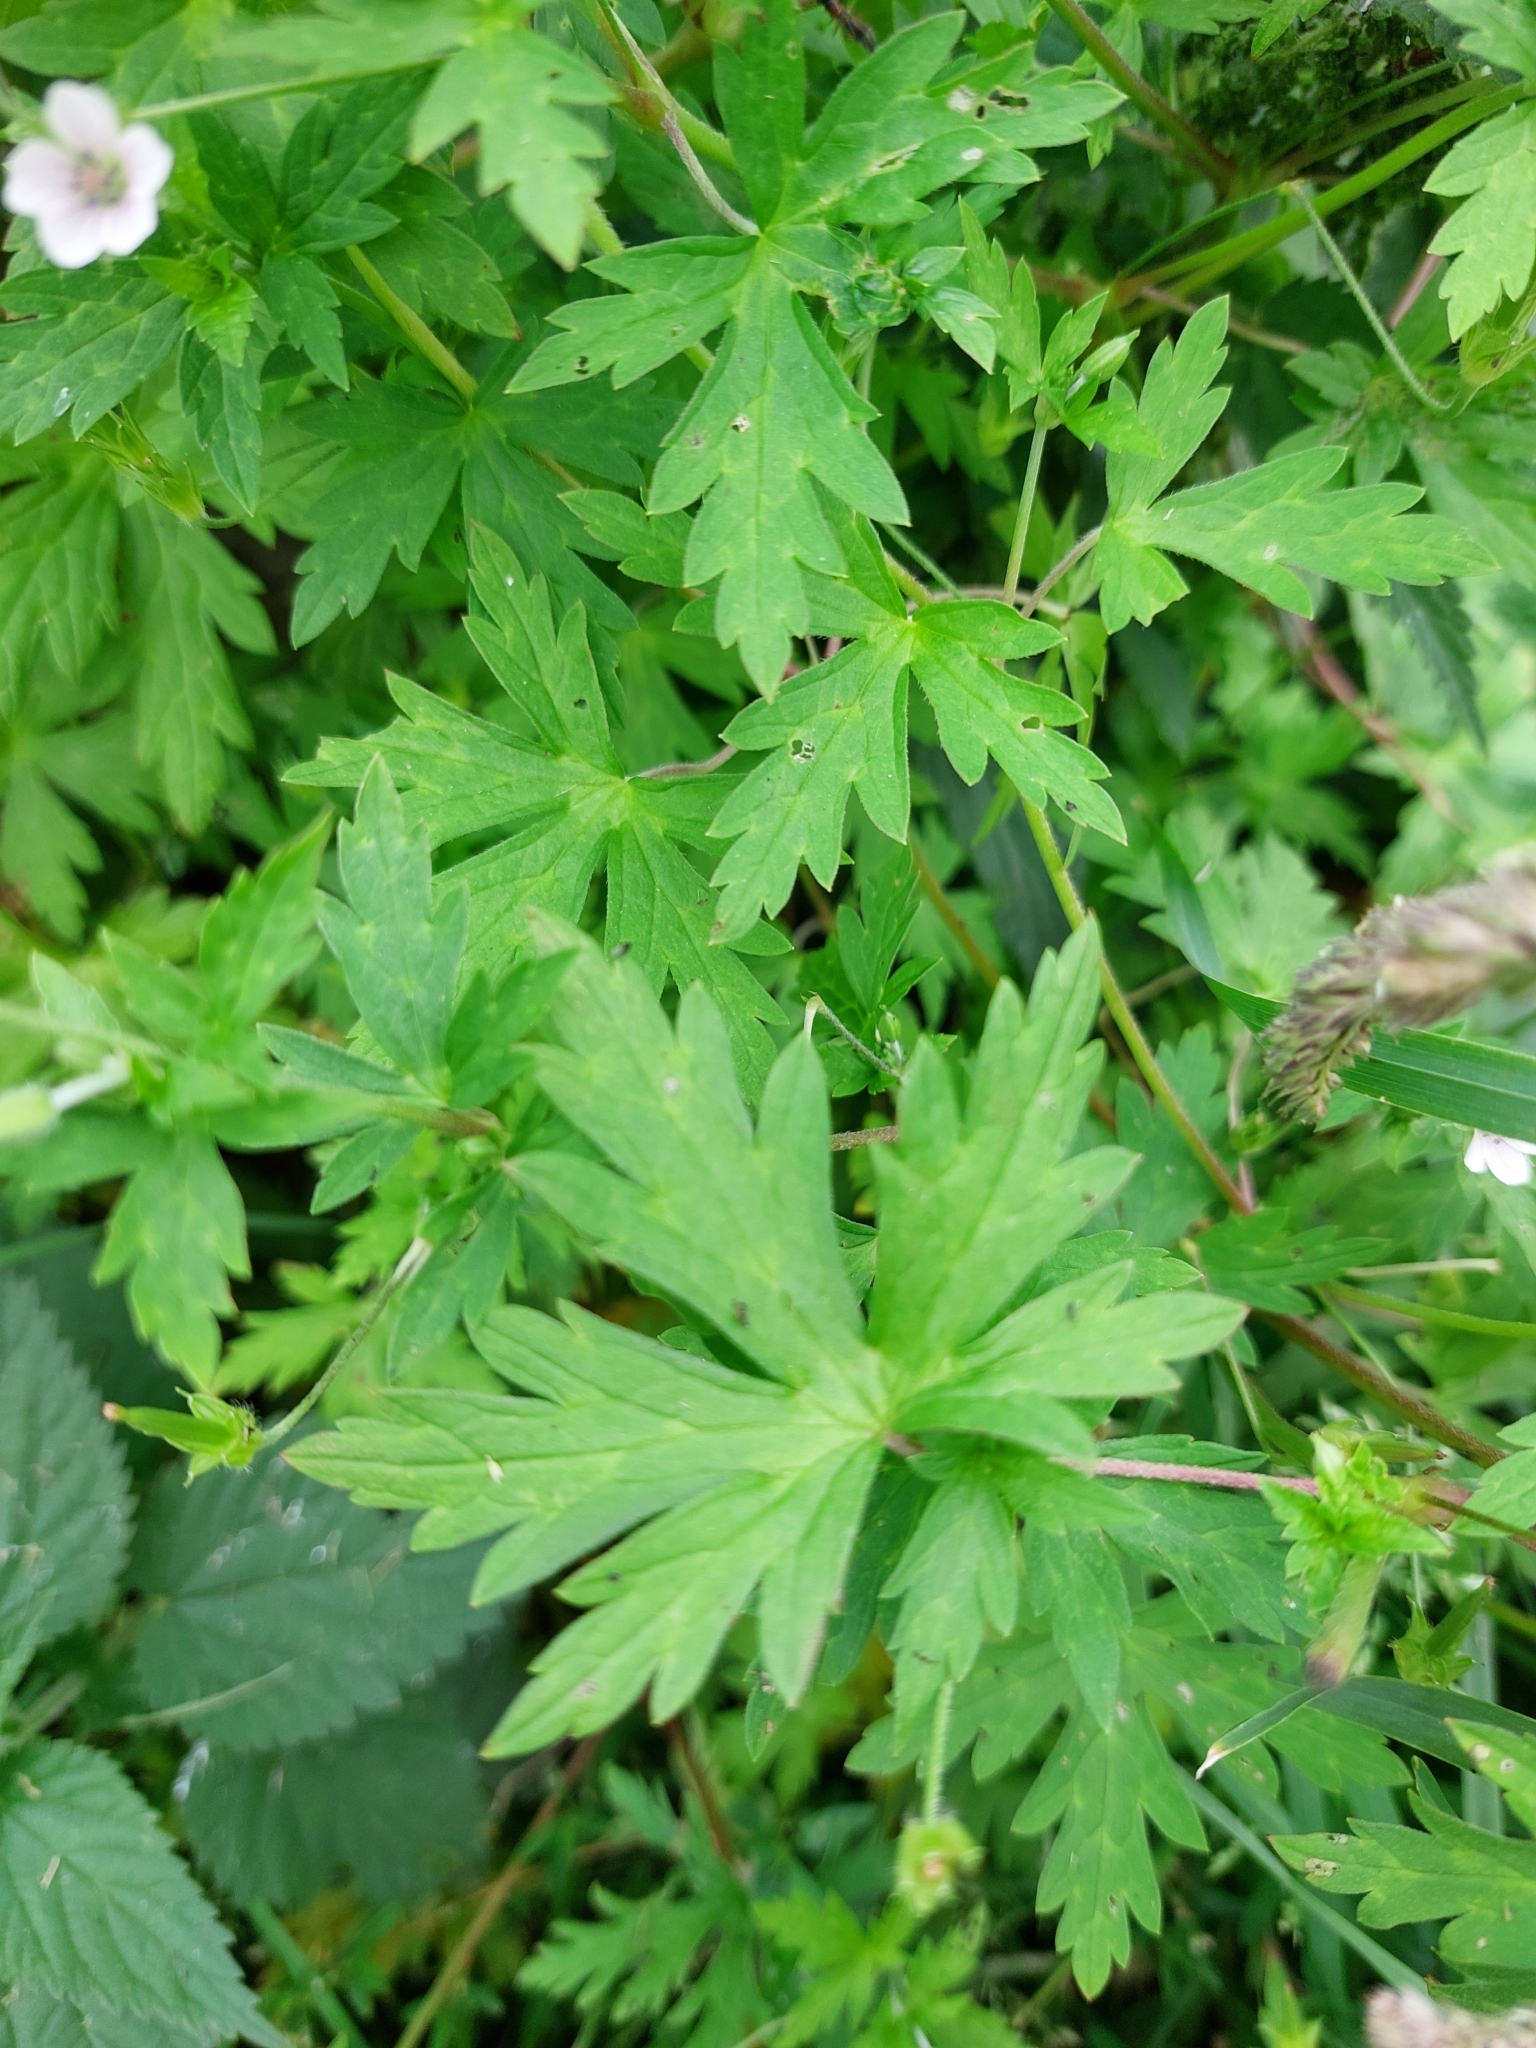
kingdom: Plantae
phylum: Tracheophyta
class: Magnoliopsida
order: Geraniales
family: Geraniaceae
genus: Geranium
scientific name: Geranium sibiricum
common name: Siberian crane's-bill
